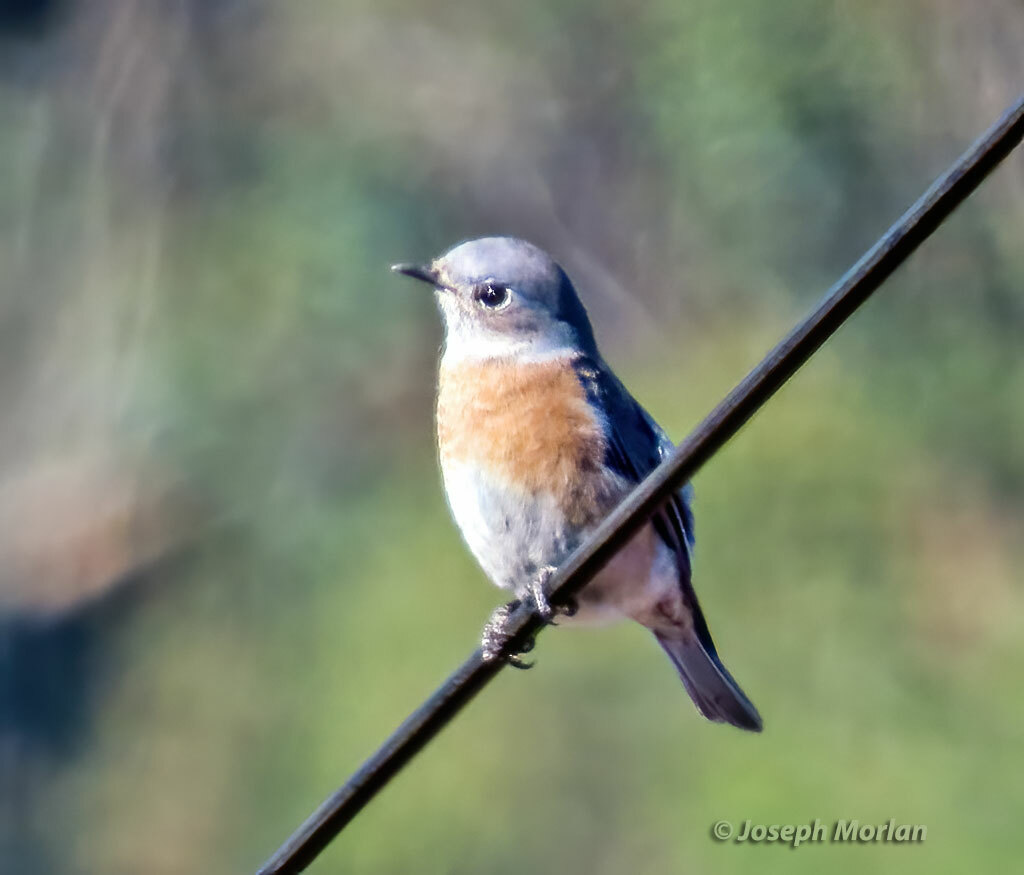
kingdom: Animalia
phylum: Chordata
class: Aves
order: Passeriformes
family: Turdidae
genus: Sialia
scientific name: Sialia mexicana
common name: Western bluebird
